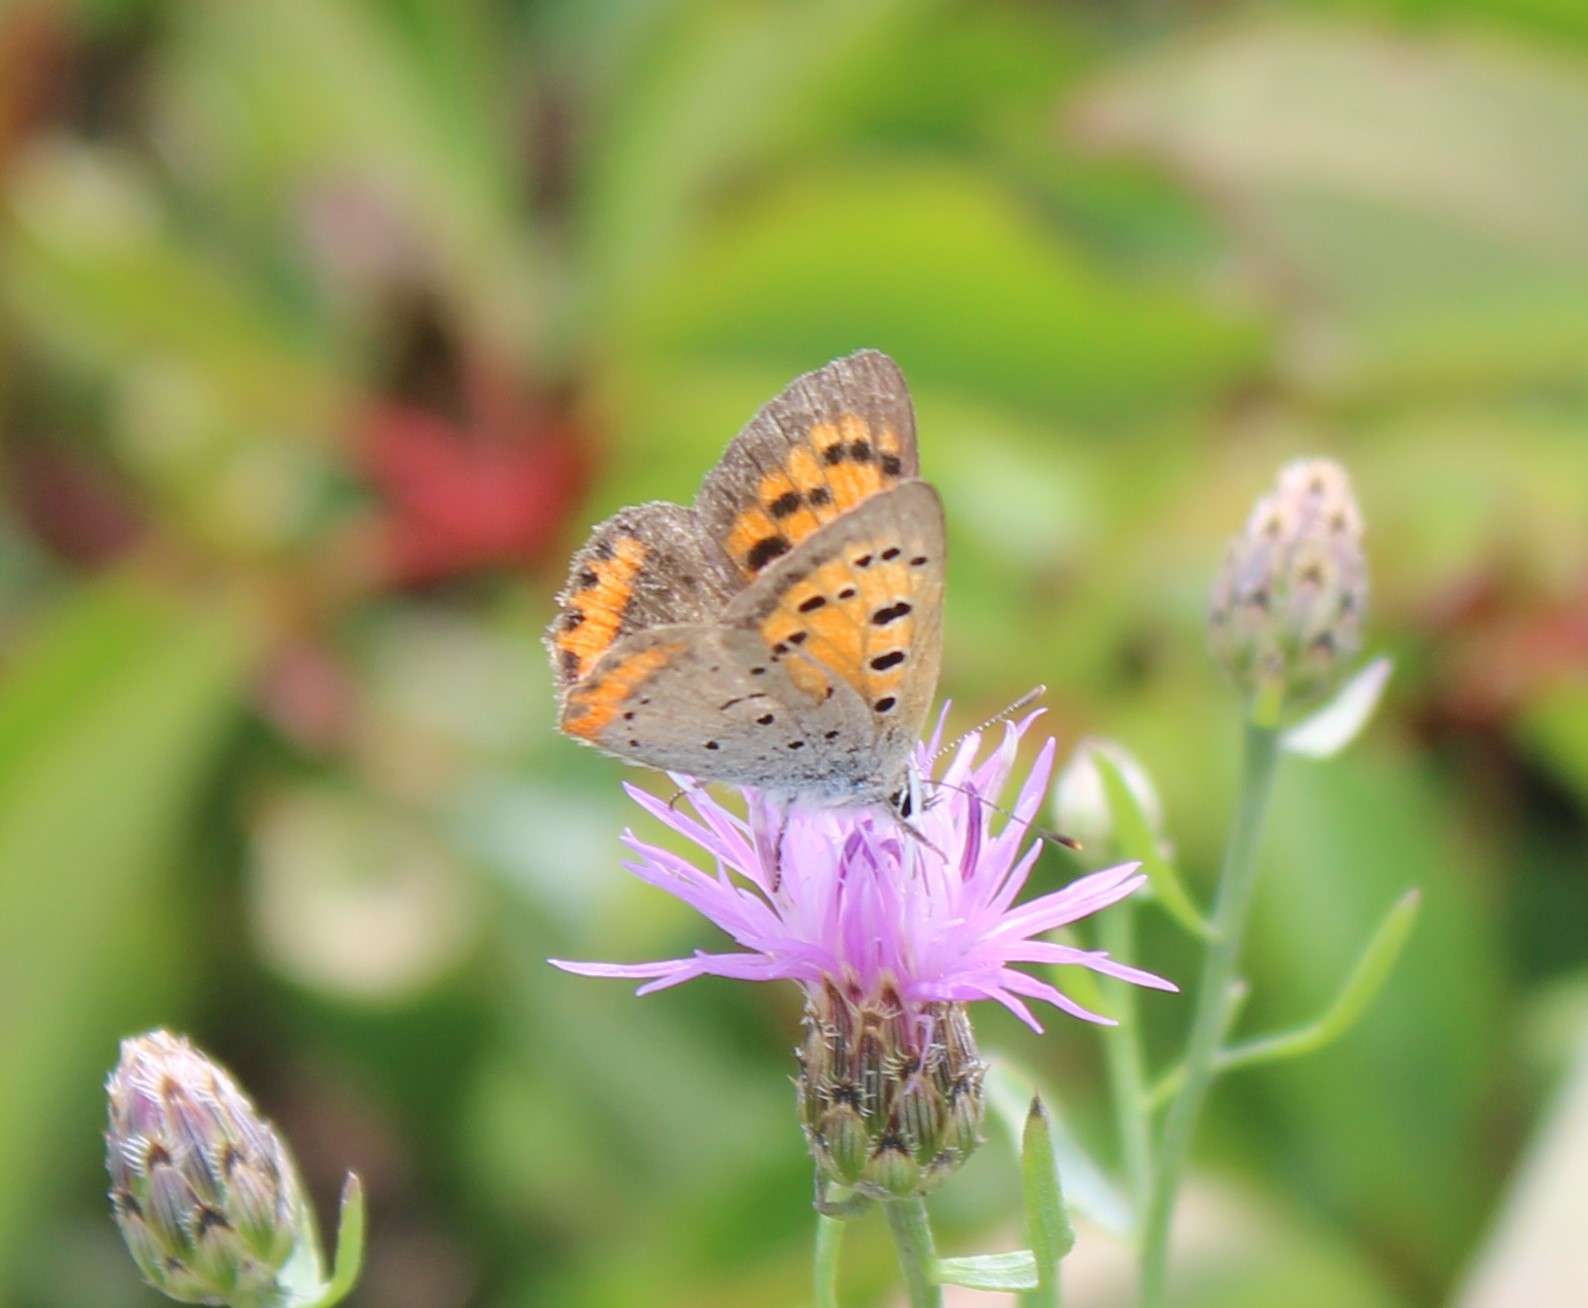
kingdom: Animalia
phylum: Arthropoda
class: Insecta
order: Lepidoptera
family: Lycaenidae
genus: Lycaena
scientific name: Lycaena hypophlaeas
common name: American copper
